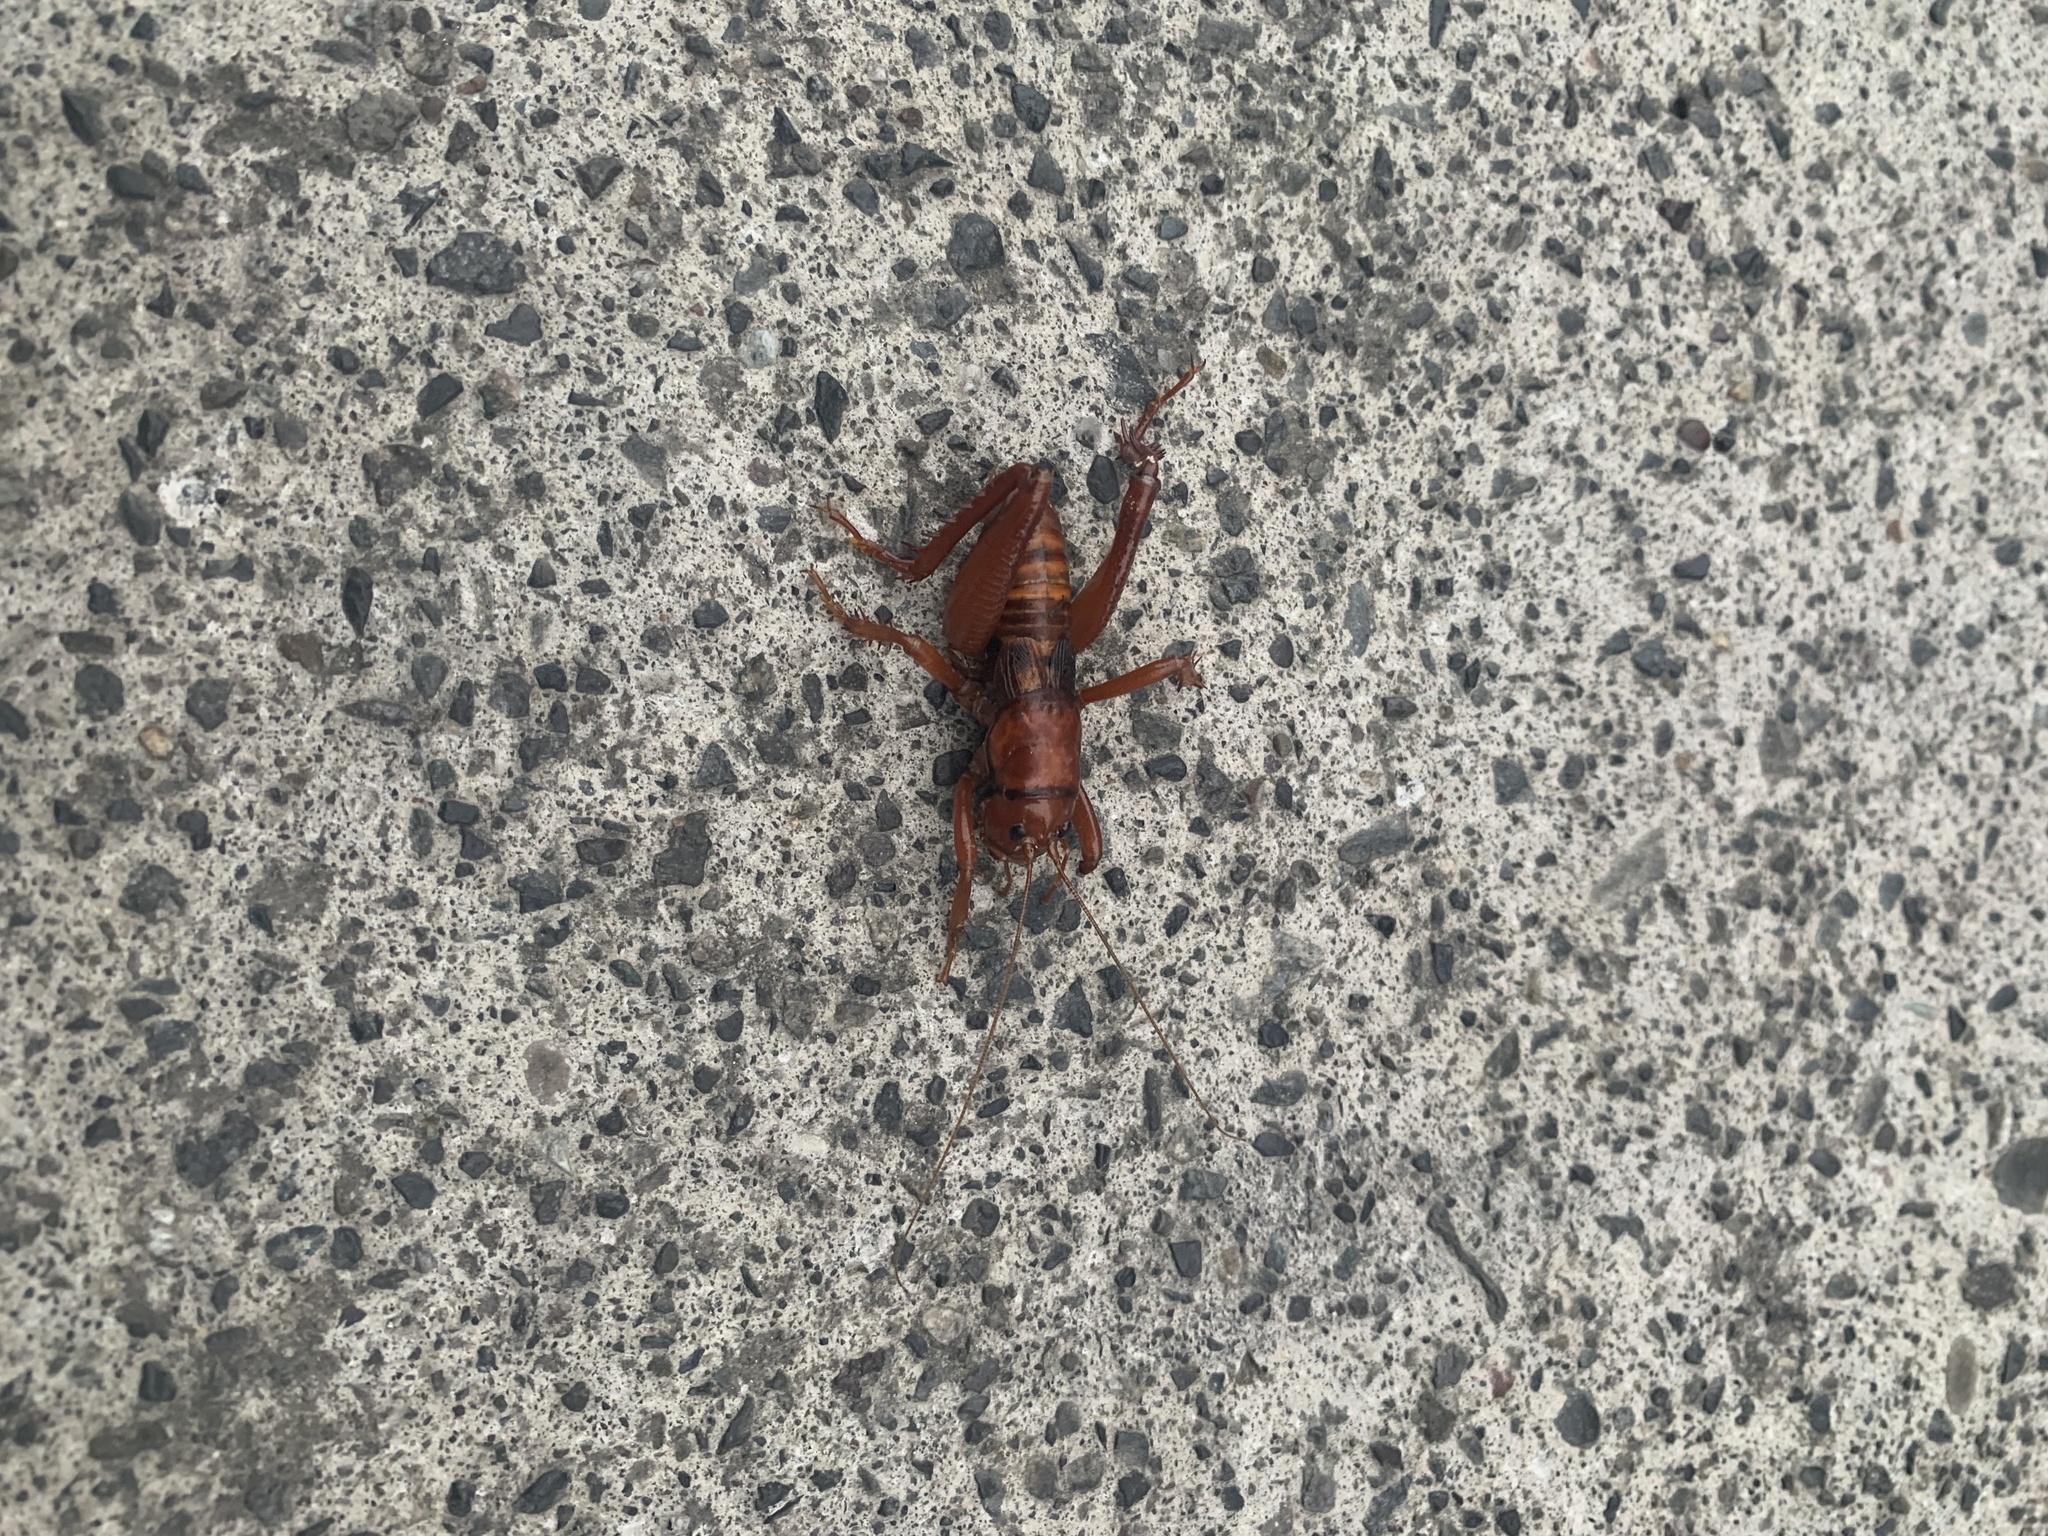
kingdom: Animalia
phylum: Arthropoda
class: Insecta
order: Orthoptera
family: Anostostomatidae
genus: Cratomelus
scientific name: Cratomelus armatus
